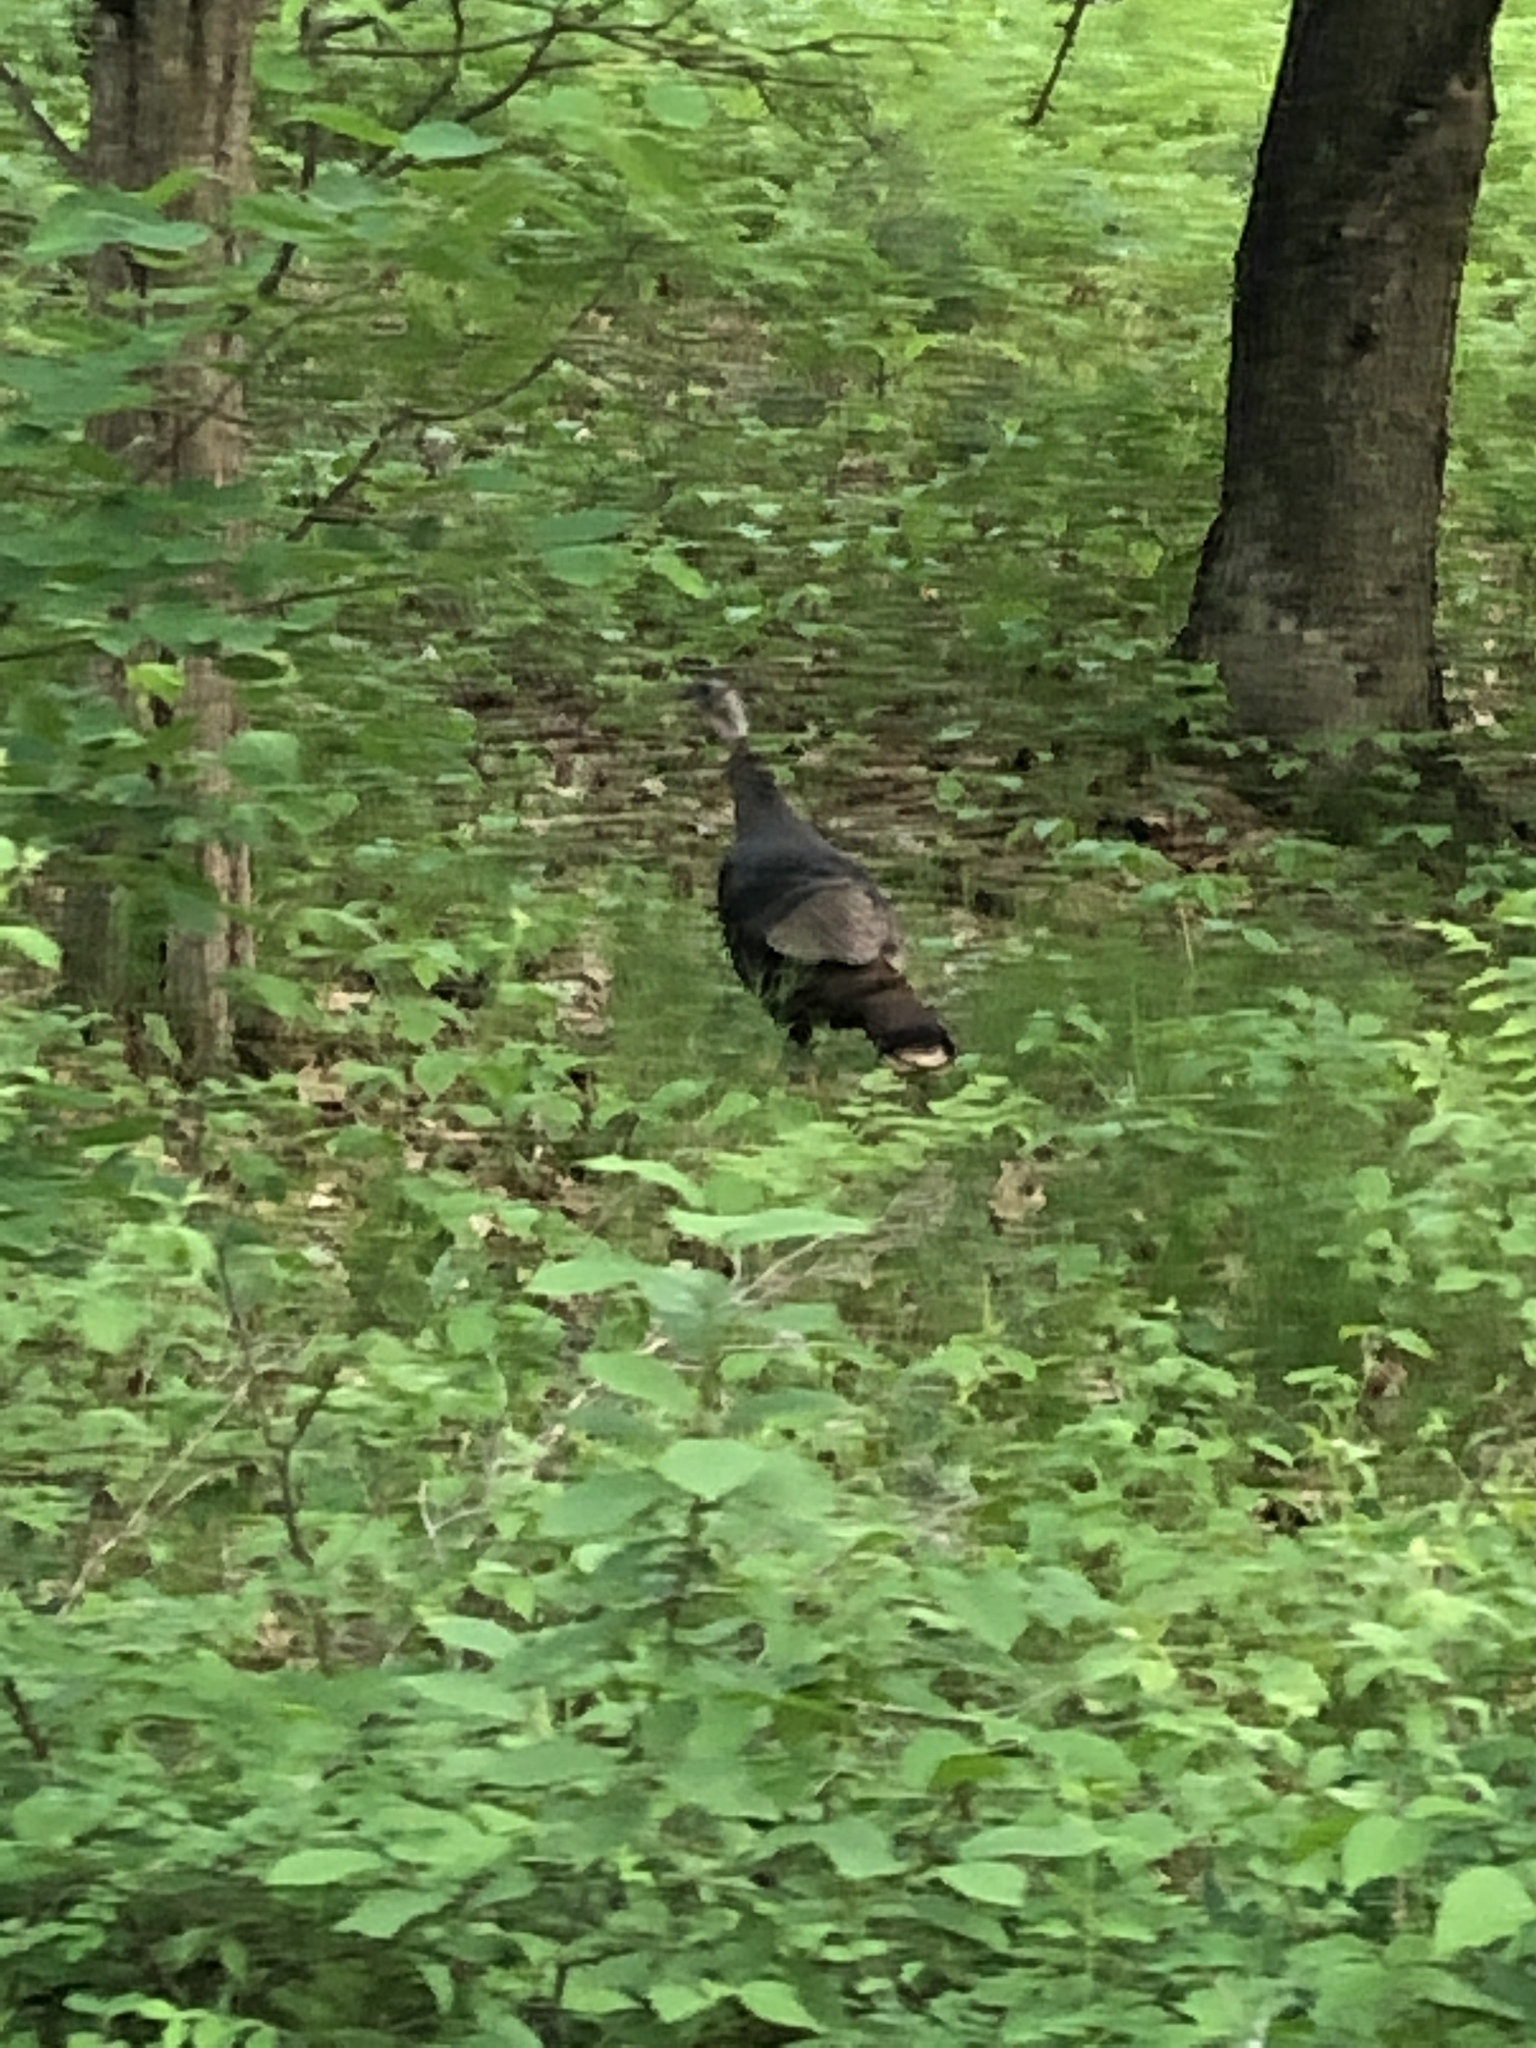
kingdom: Animalia
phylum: Chordata
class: Aves
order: Galliformes
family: Phasianidae
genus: Meleagris
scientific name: Meleagris gallopavo
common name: Wild turkey
